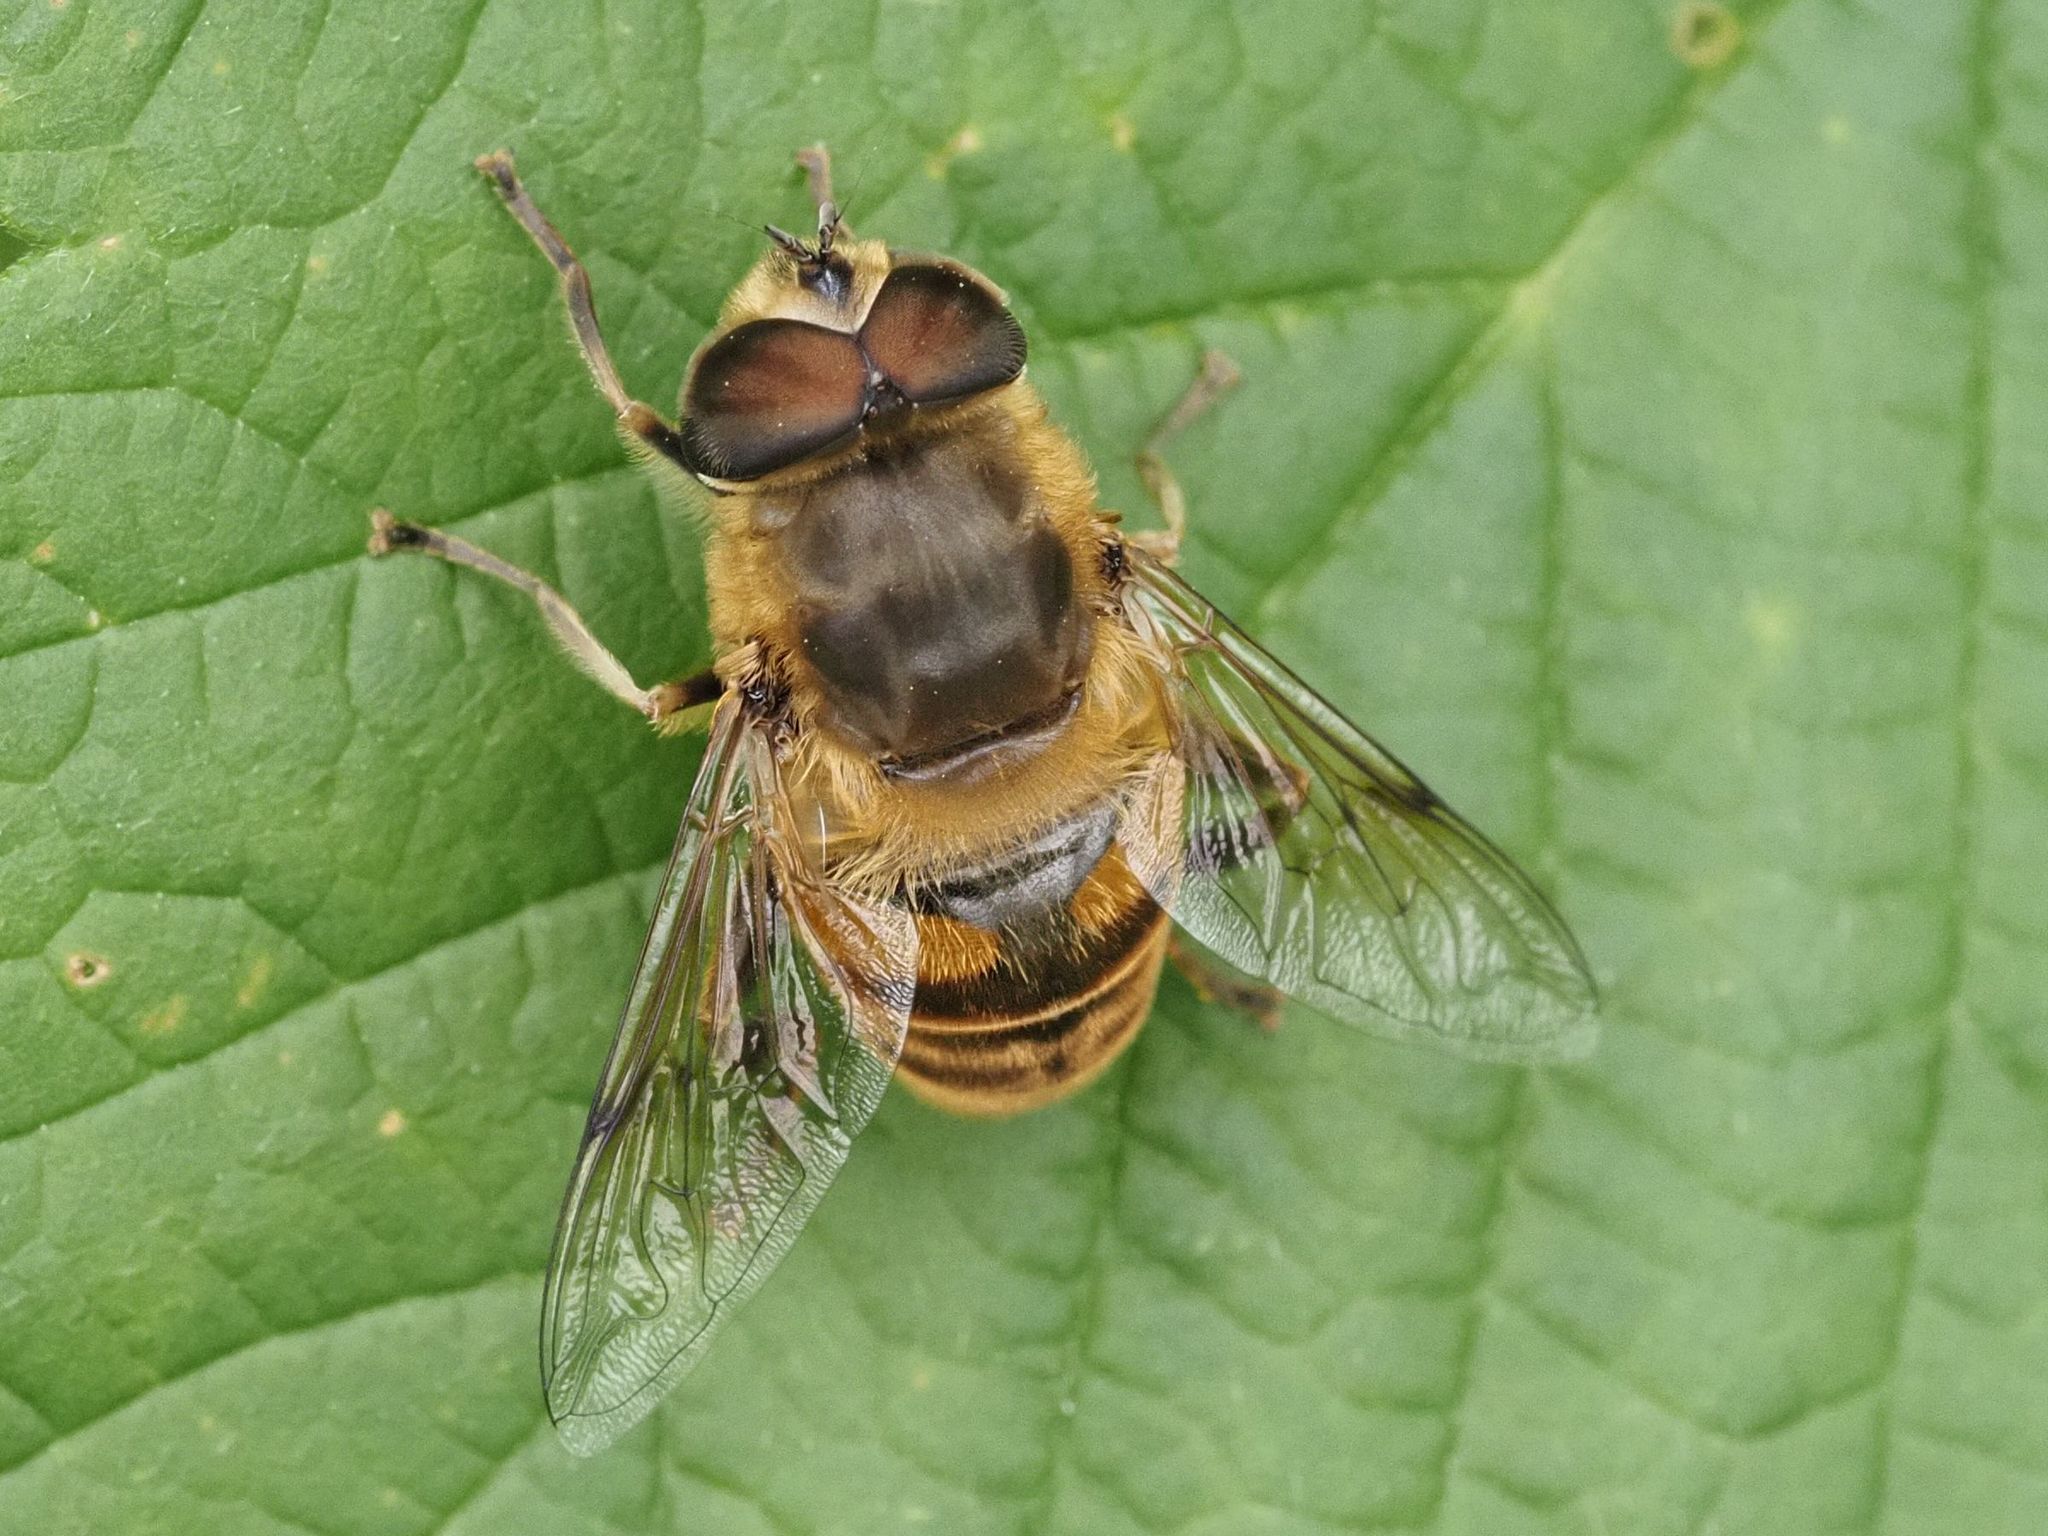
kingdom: Animalia
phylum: Arthropoda
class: Insecta
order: Diptera
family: Syrphidae
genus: Eristalis
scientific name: Eristalis tenax
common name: Drone fly
